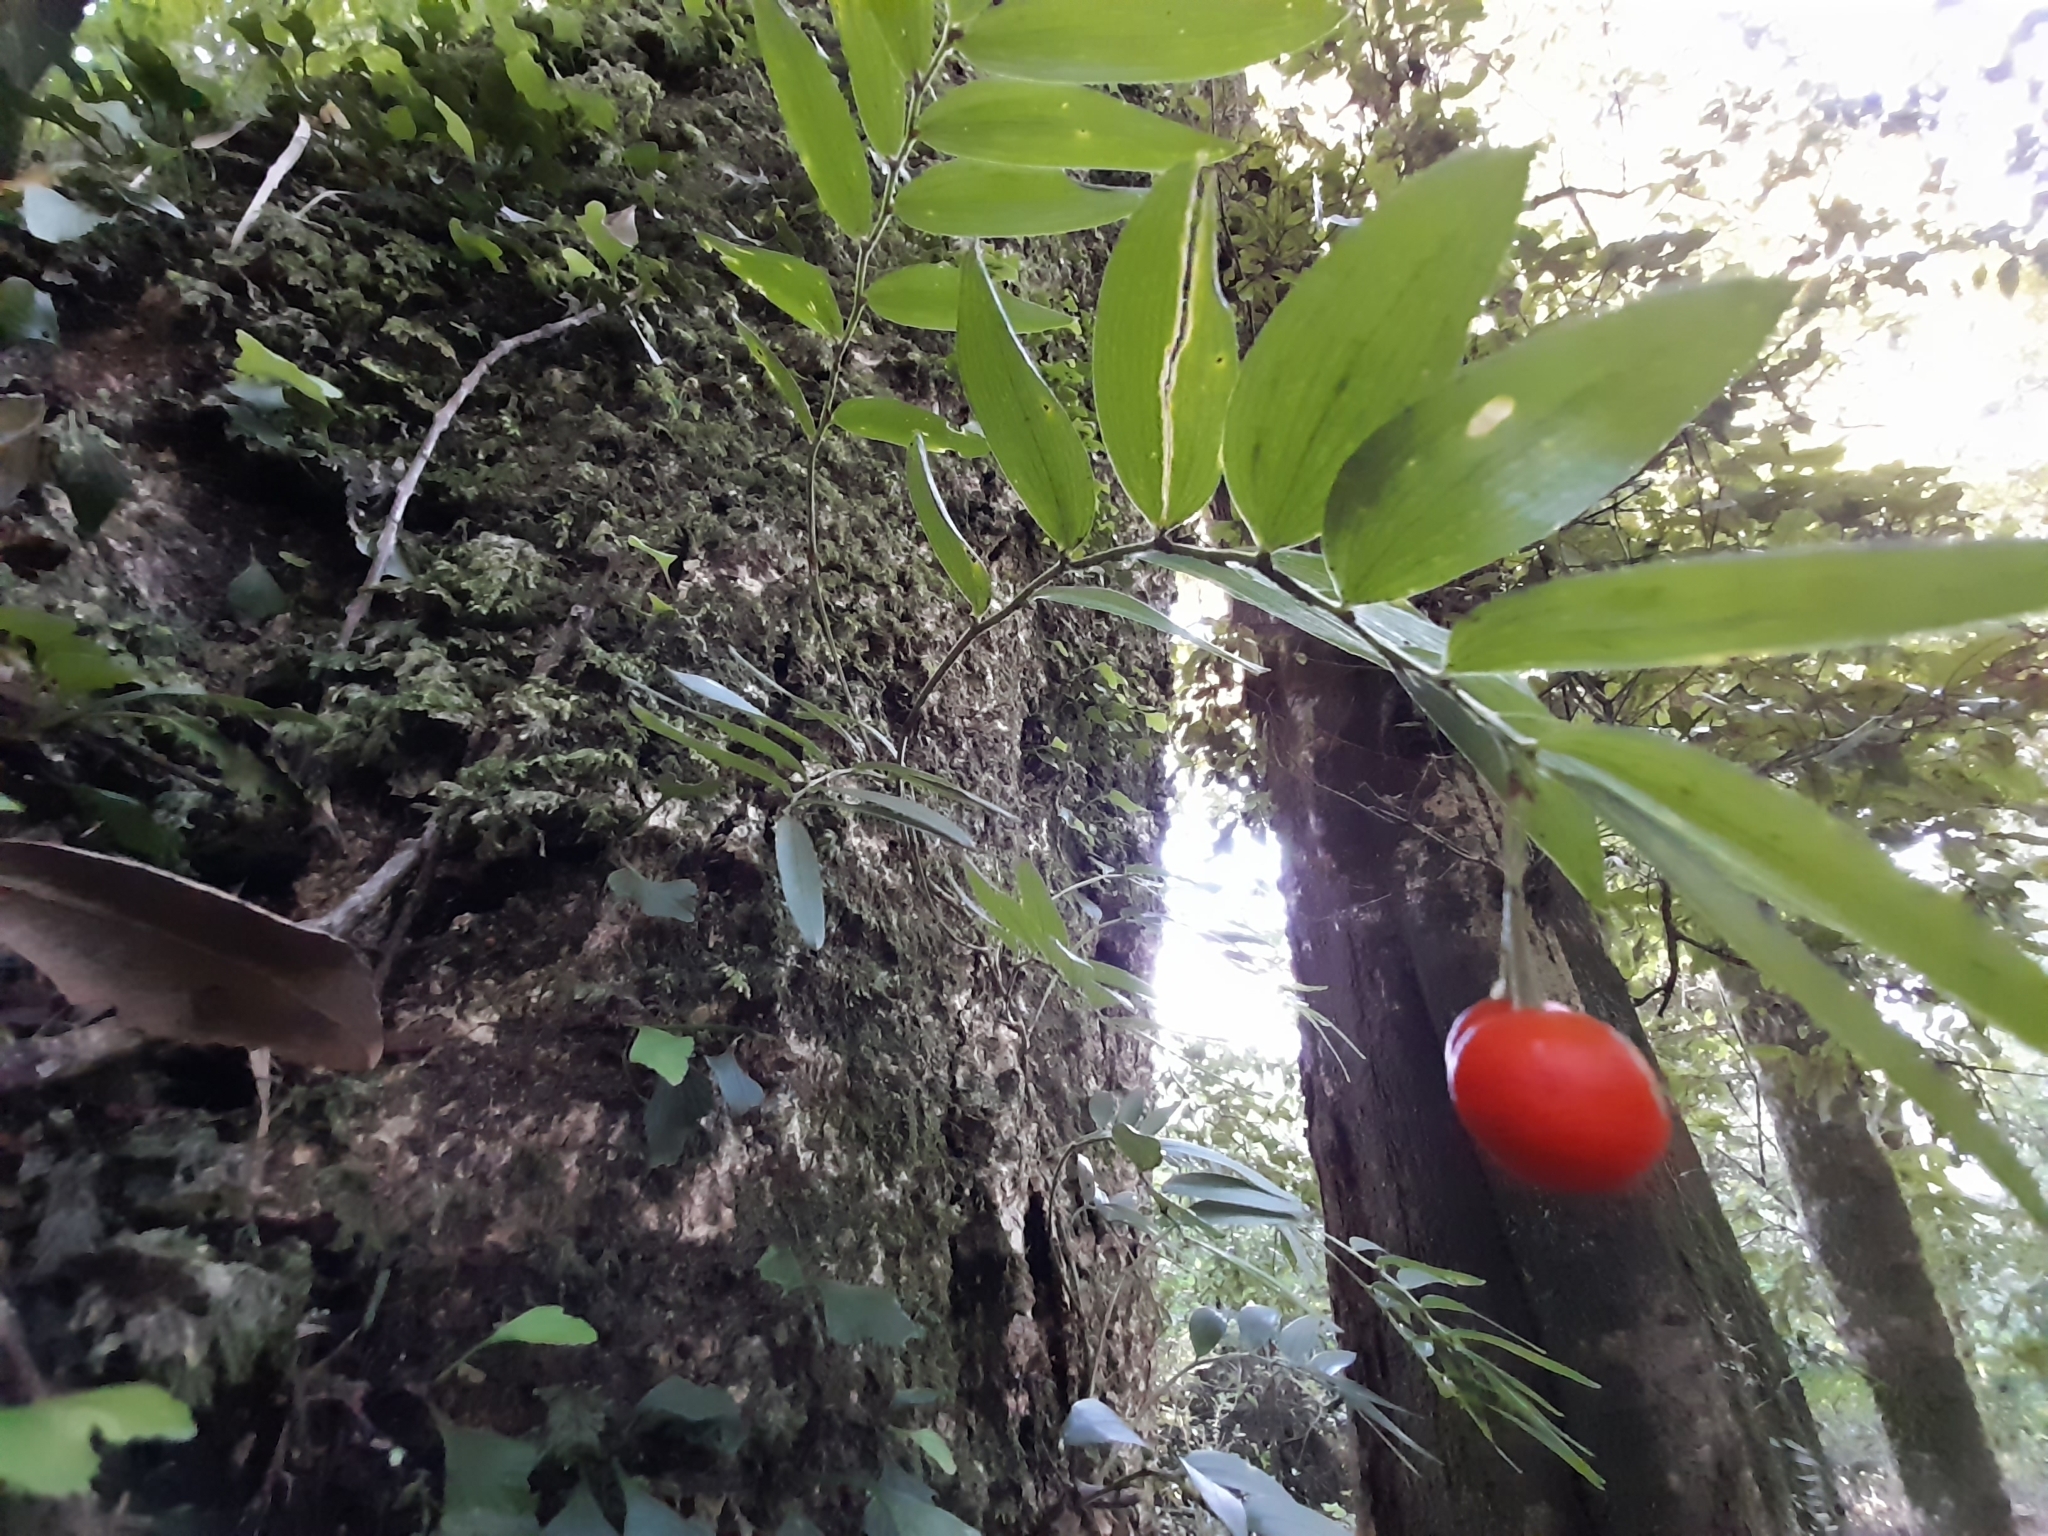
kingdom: Plantae
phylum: Tracheophyta
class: Liliopsida
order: Liliales
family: Alstroemeriaceae
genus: Luzuriaga
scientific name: Luzuriaga radicans
